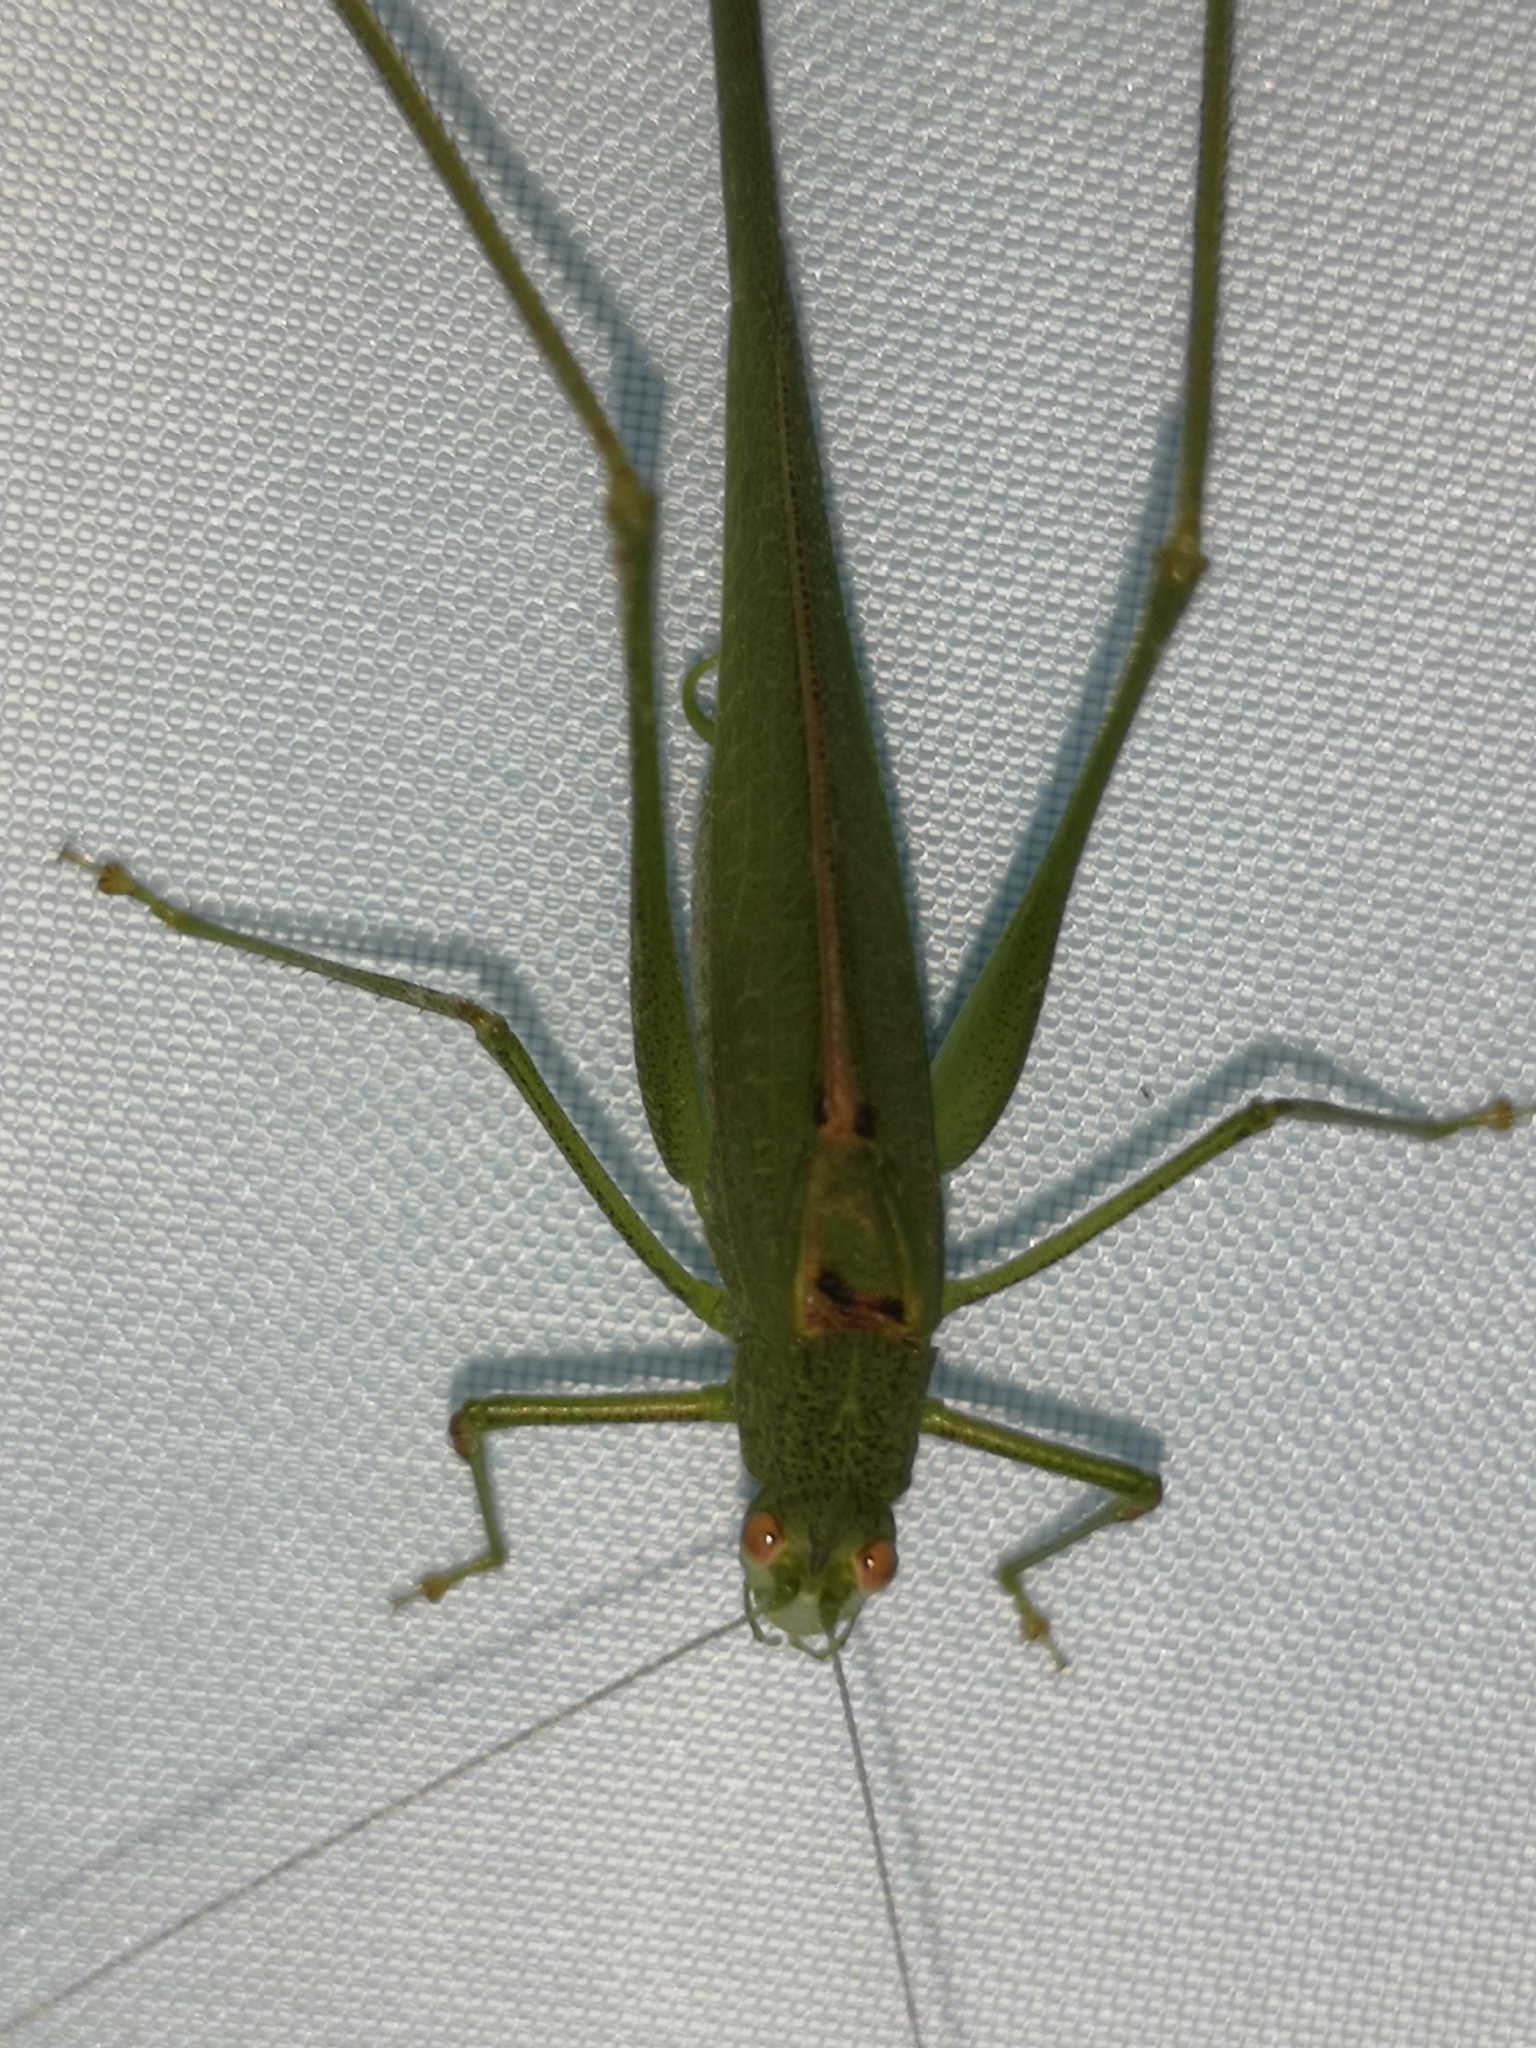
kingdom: Animalia
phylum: Arthropoda
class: Insecta
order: Orthoptera
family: Tettigoniidae
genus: Phaneroptera
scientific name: Phaneroptera nana
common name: Southern sickle bush-cricket
